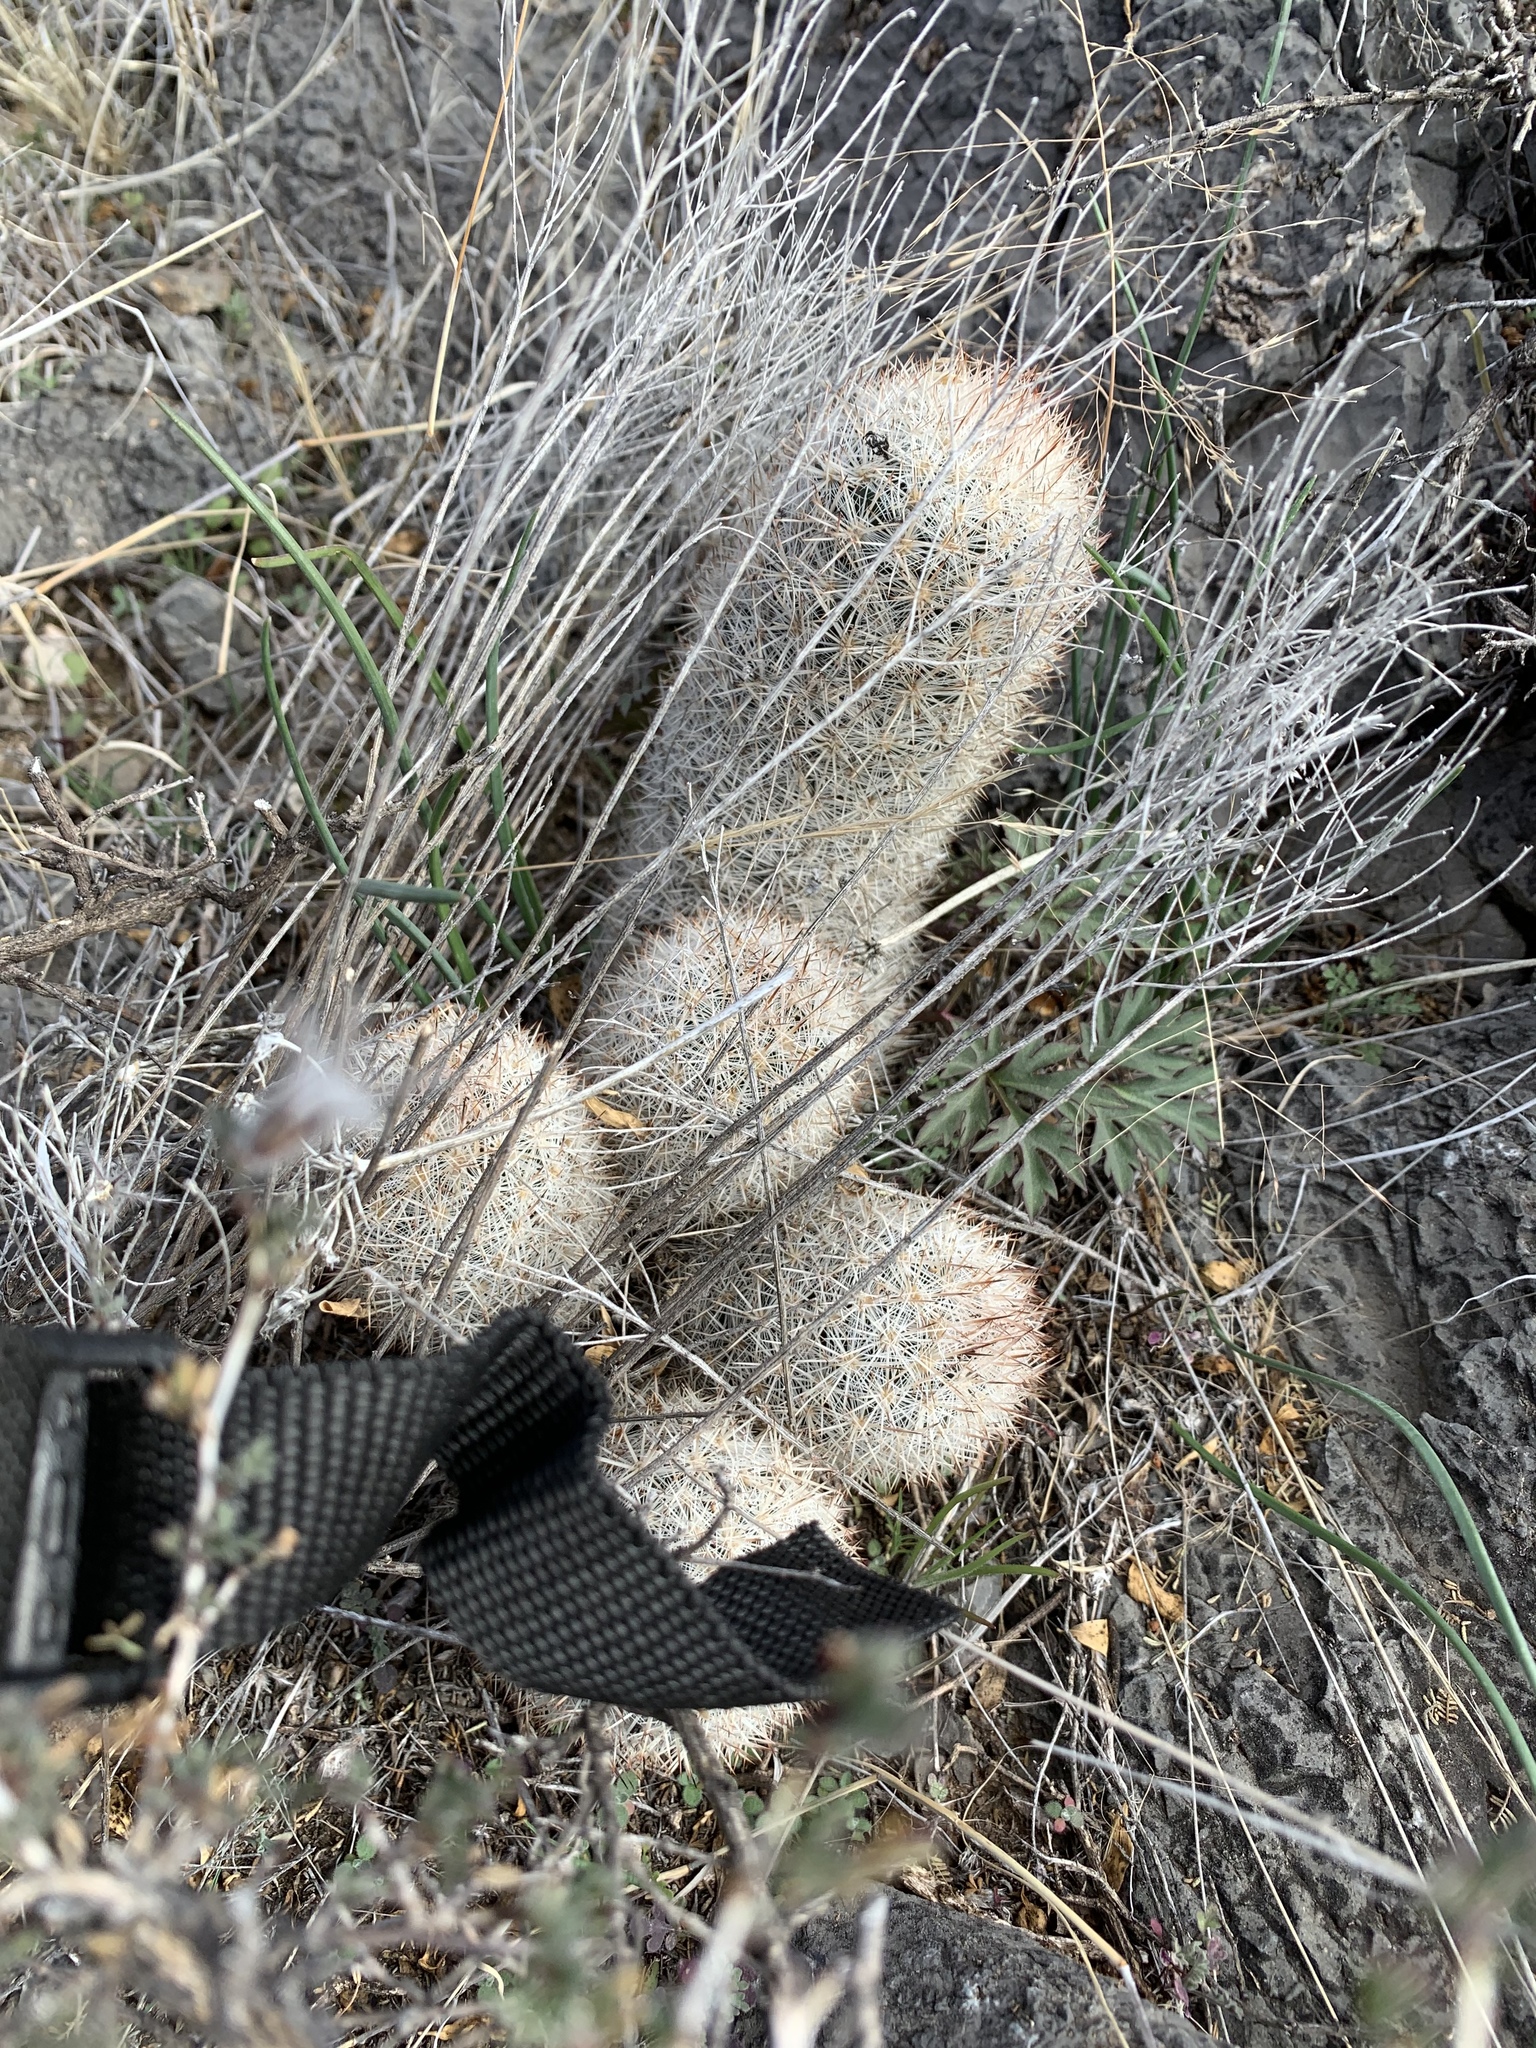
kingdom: Plantae
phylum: Tracheophyta
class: Magnoliopsida
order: Caryophyllales
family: Cactaceae
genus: Pelecyphora
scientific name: Pelecyphora sneedii
